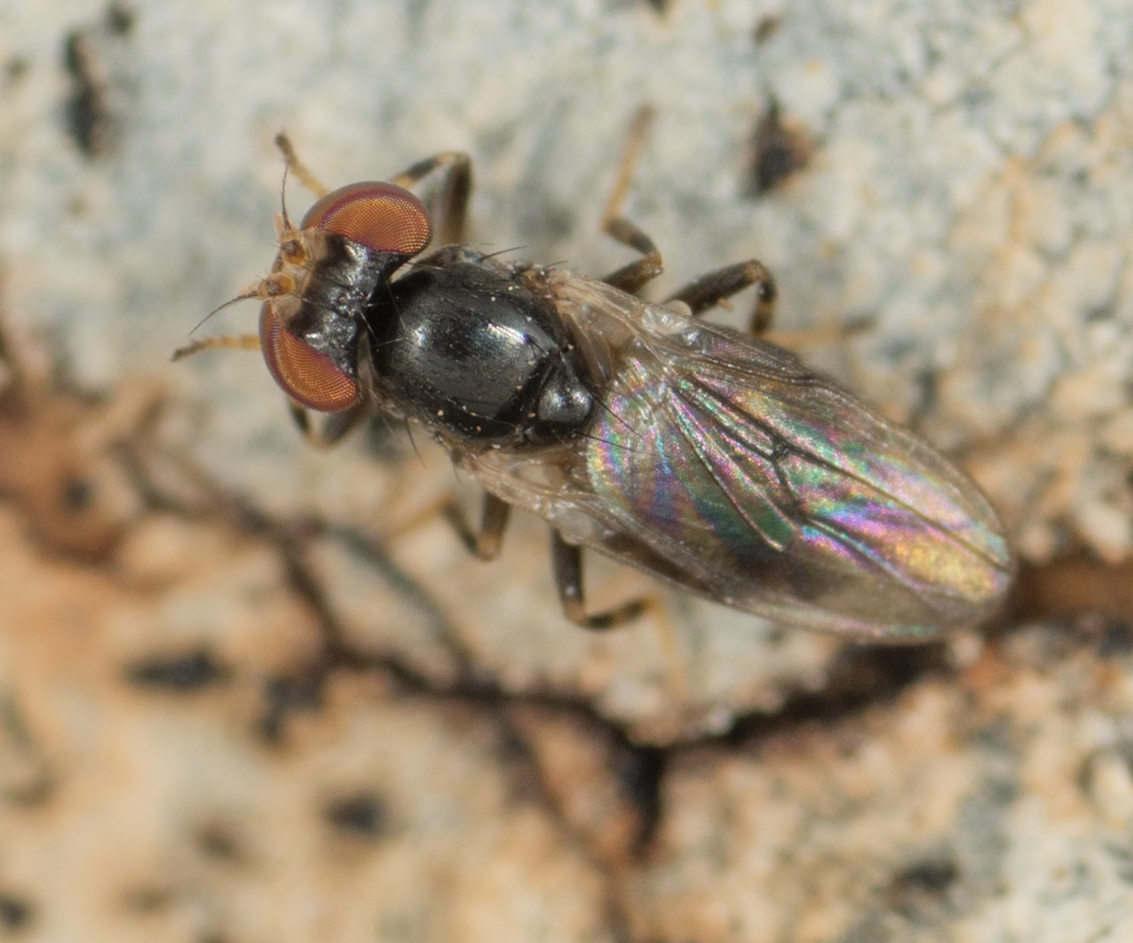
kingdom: Animalia
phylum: Arthropoda
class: Insecta
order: Diptera
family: Periscelididae
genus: Periscelis
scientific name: Periscelis occidentalis
